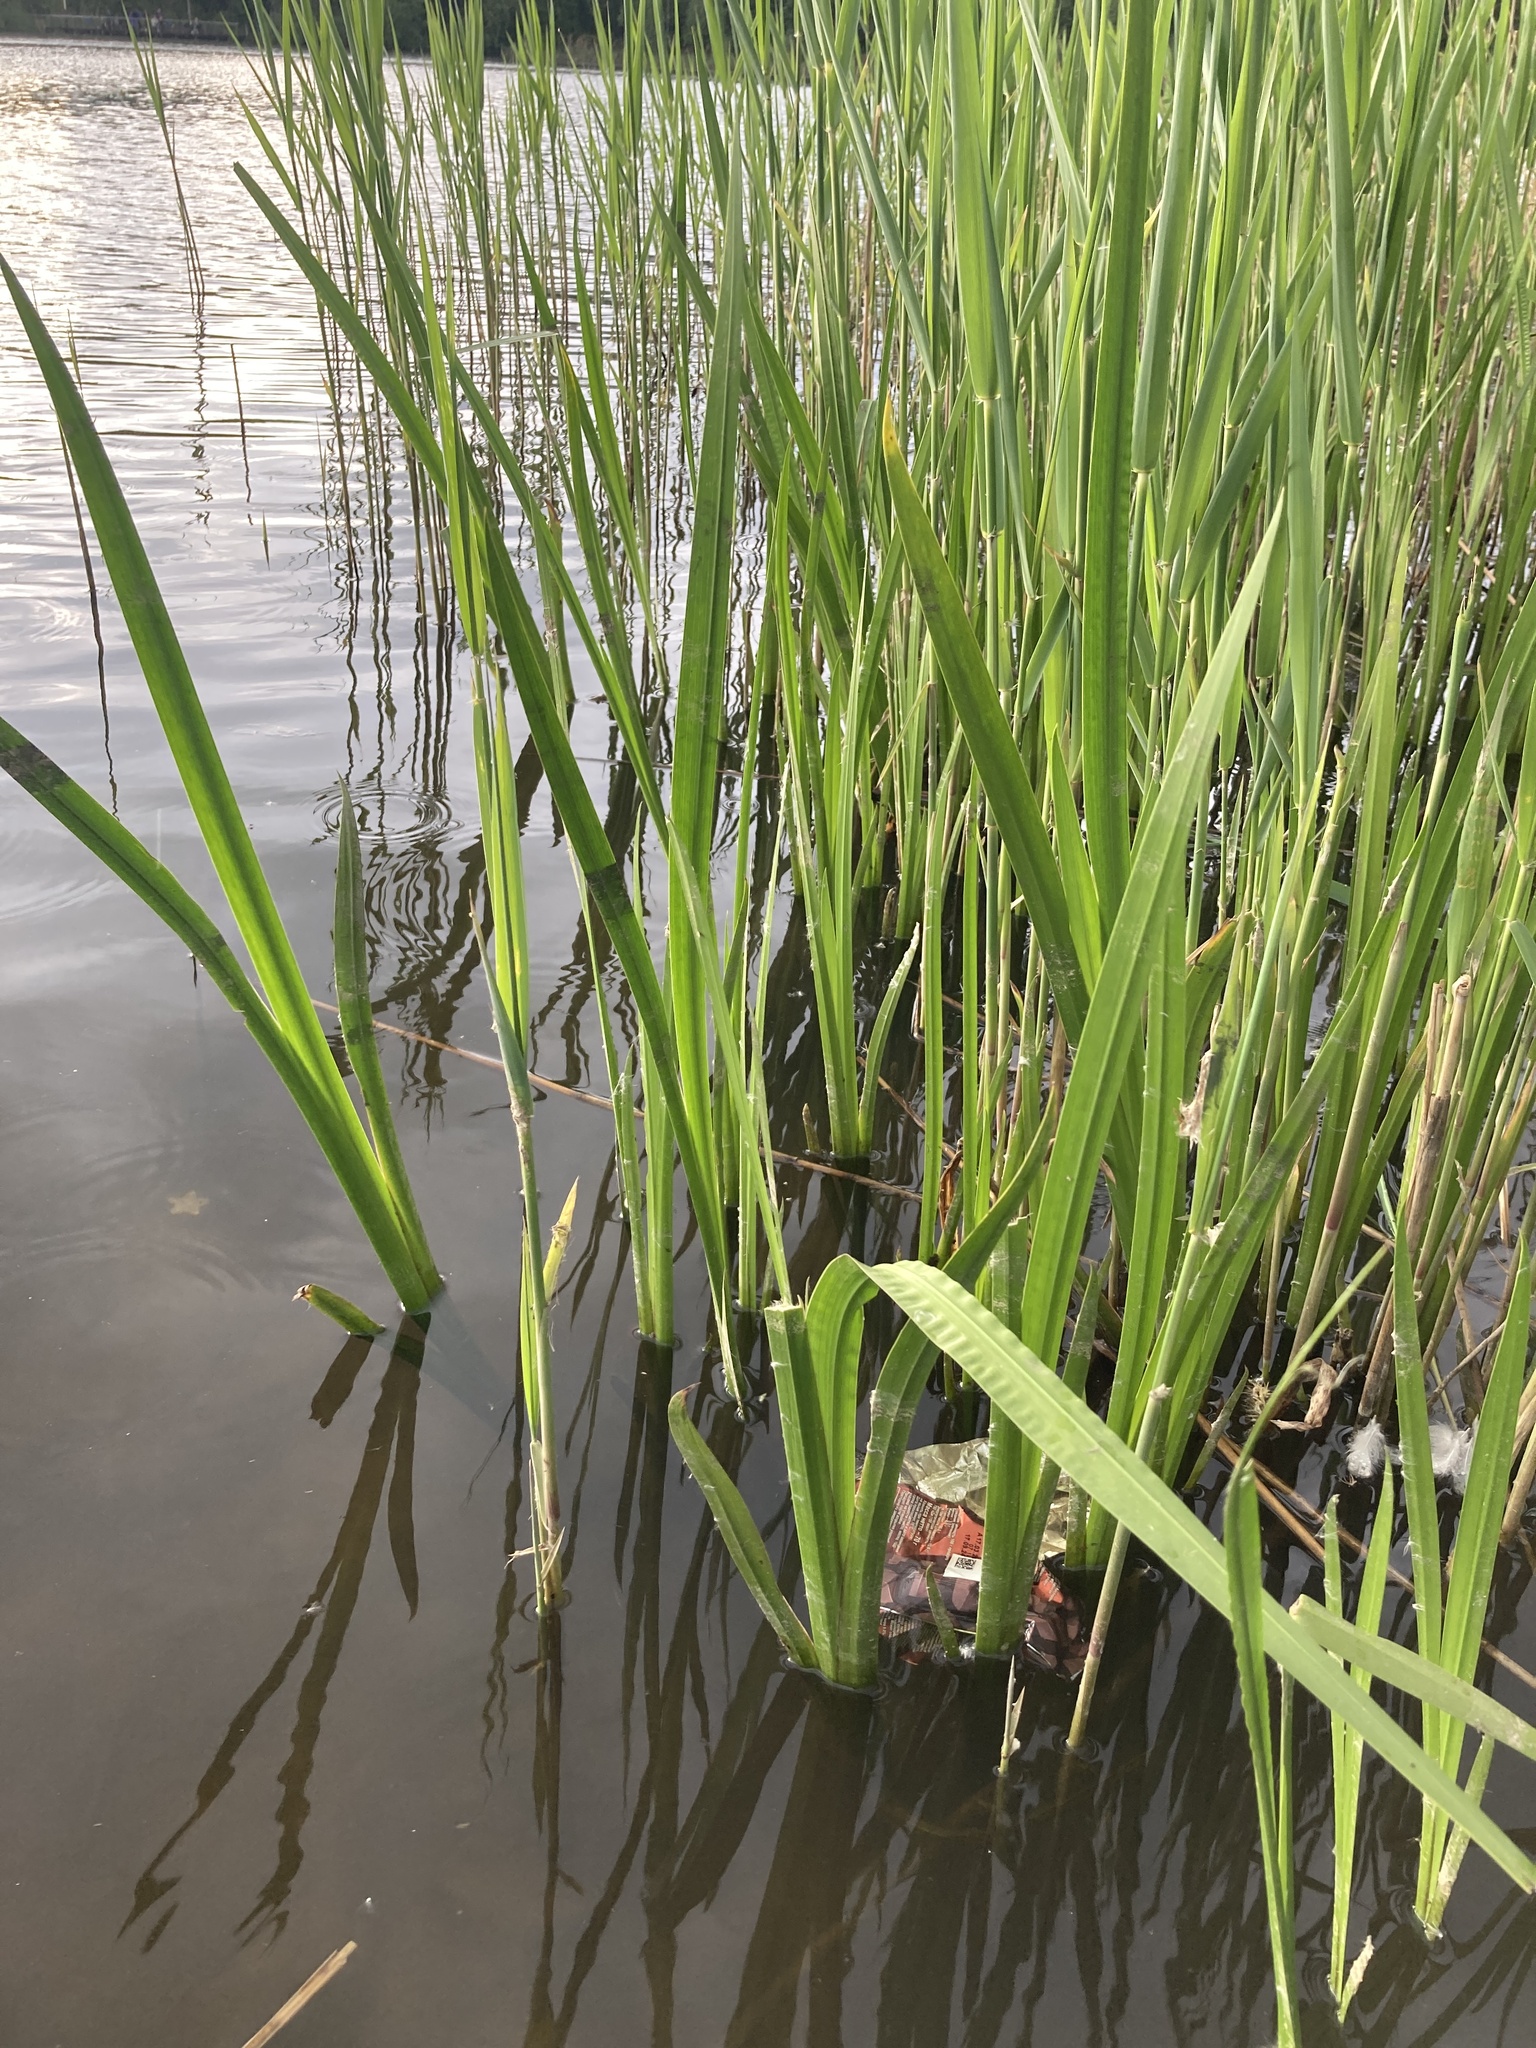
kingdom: Plantae
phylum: Tracheophyta
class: Liliopsida
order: Acorales
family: Acoraceae
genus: Acorus
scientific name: Acorus calamus
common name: Sweet-flag
